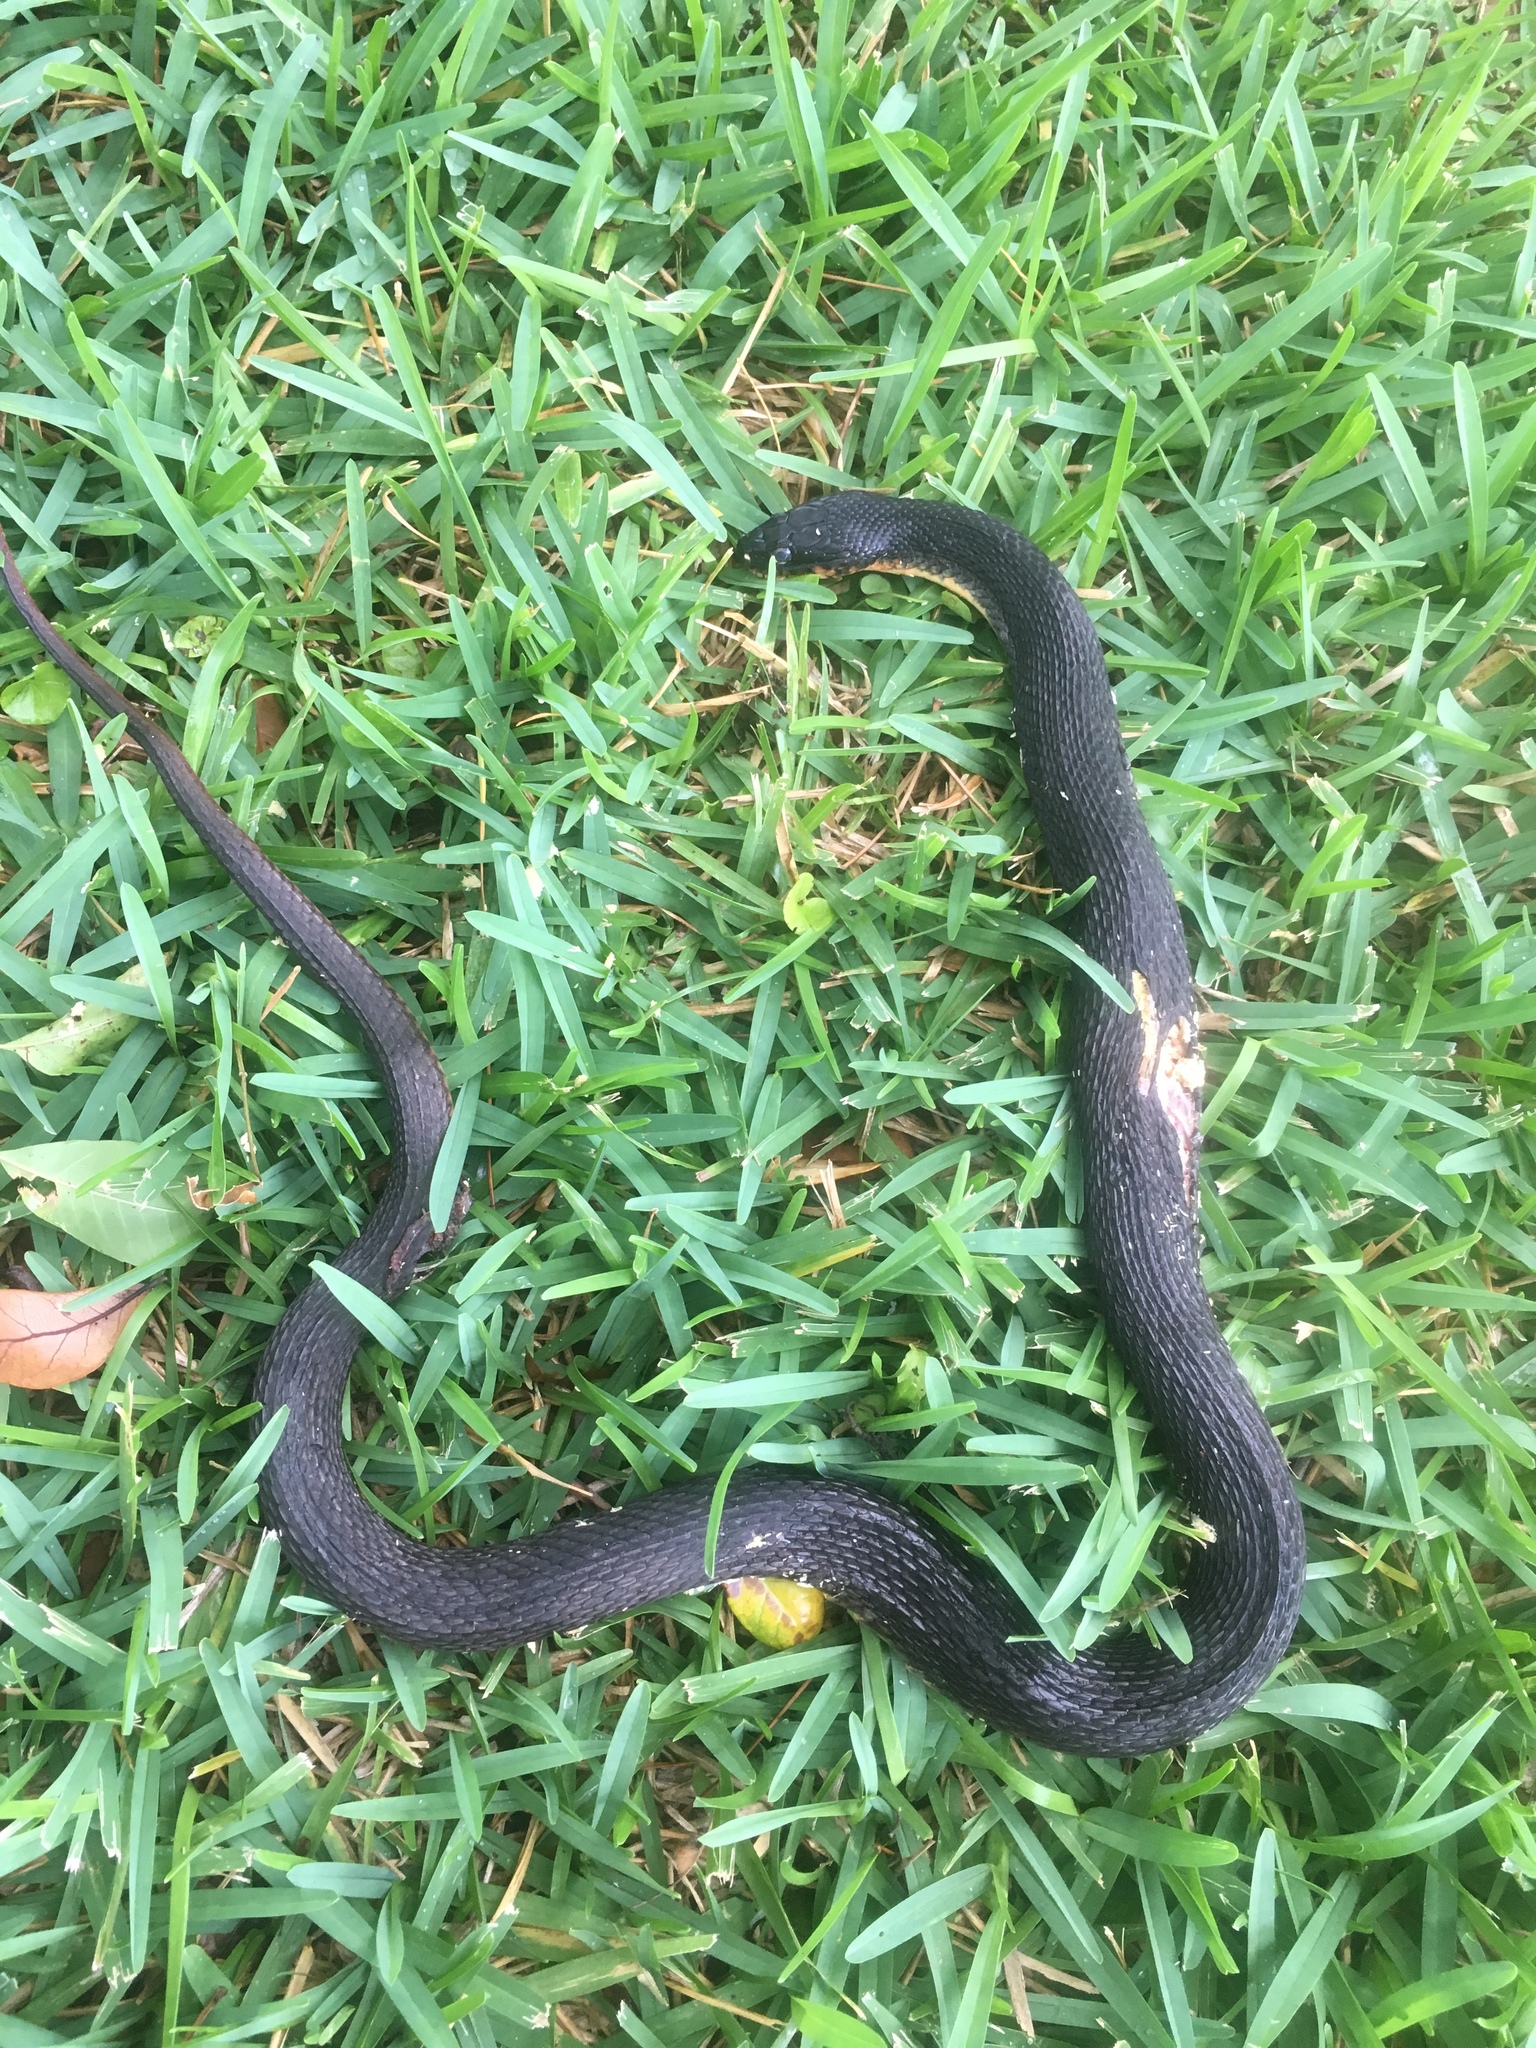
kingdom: Animalia
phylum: Chordata
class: Squamata
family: Colubridae
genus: Nerodia
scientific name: Nerodia erythrogaster
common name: Plainbelly water snake
